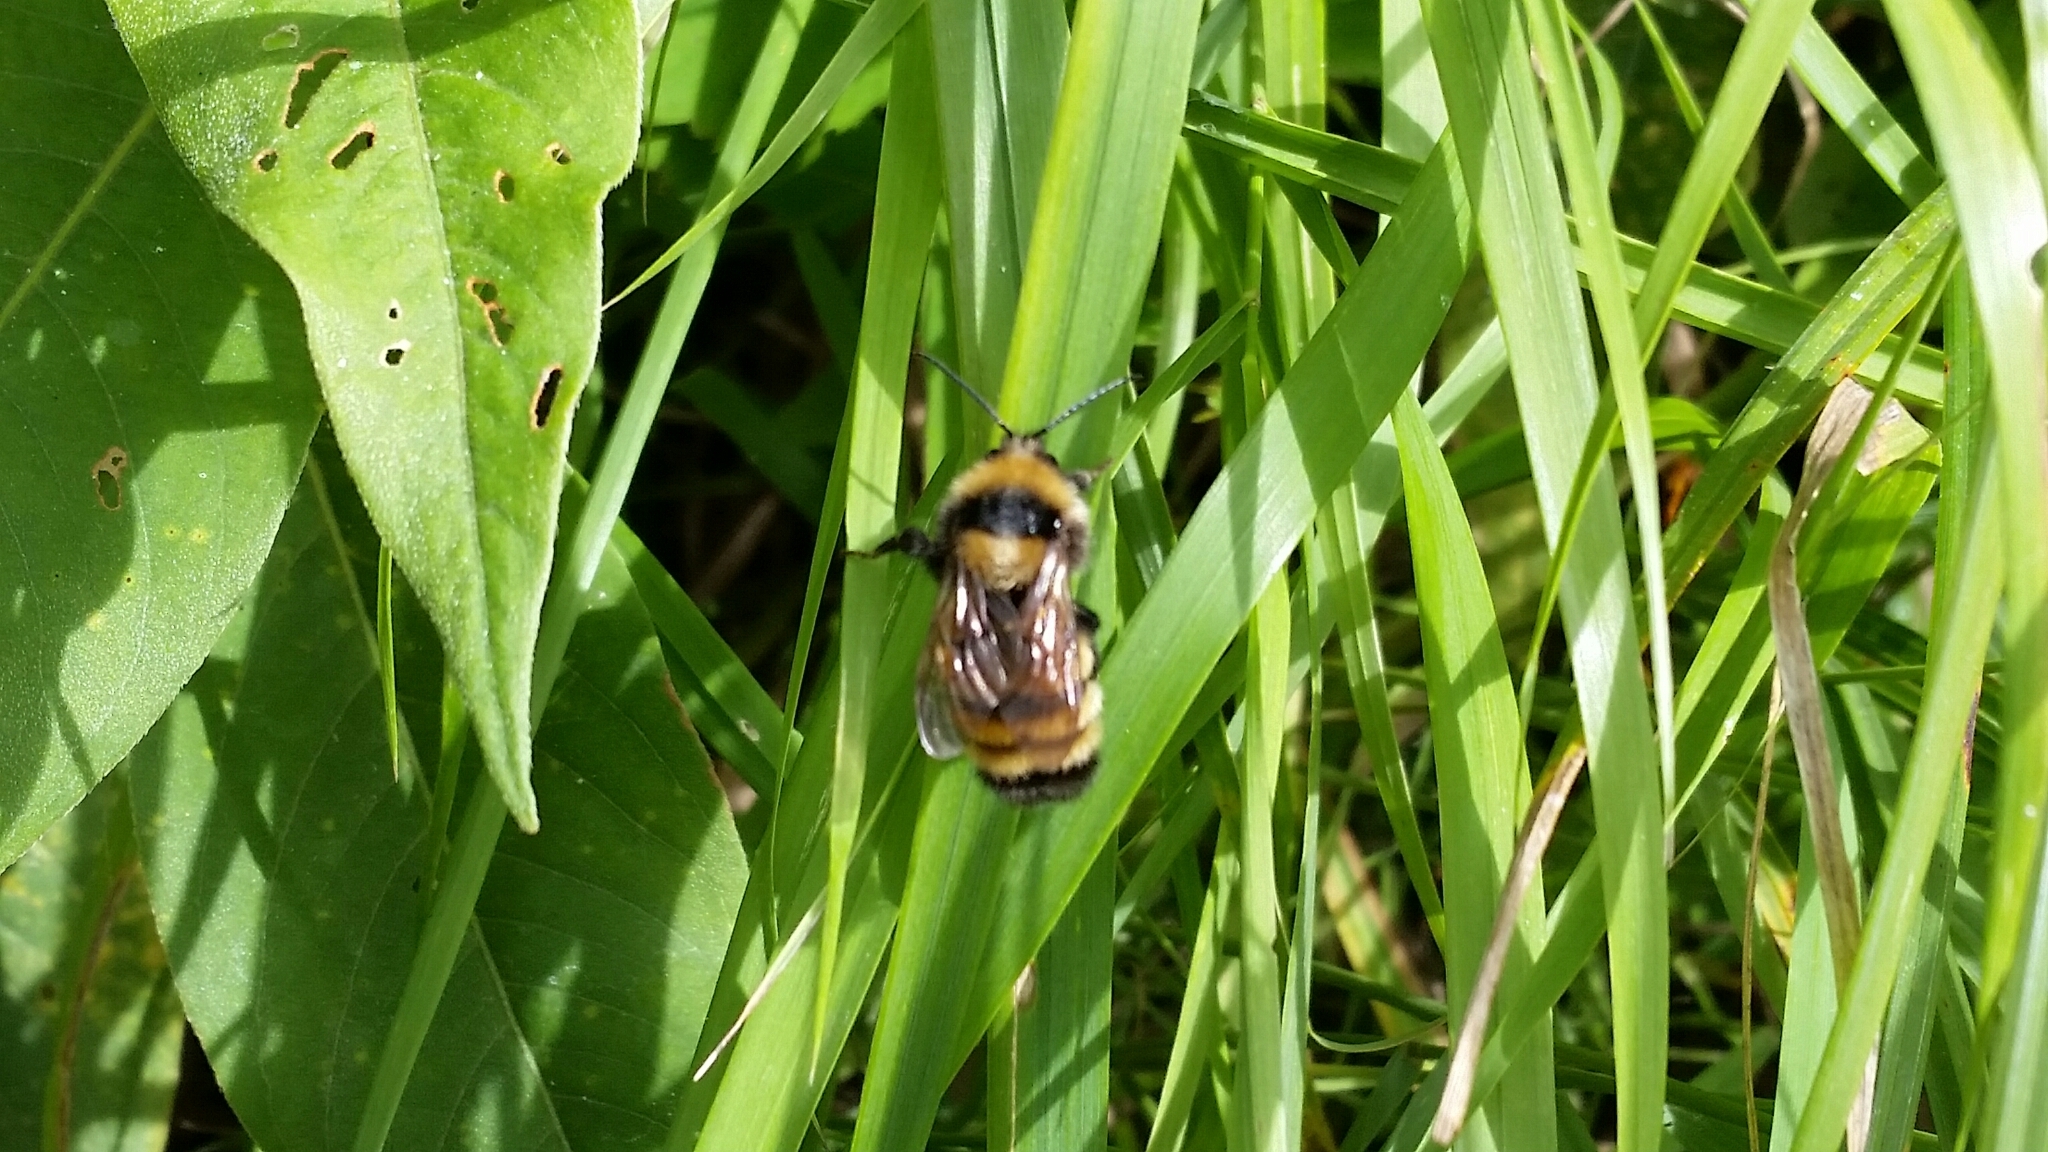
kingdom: Animalia
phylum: Arthropoda
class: Insecta
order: Hymenoptera
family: Apidae
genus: Bombus
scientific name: Bombus borealis
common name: Northern amber bumble bee
